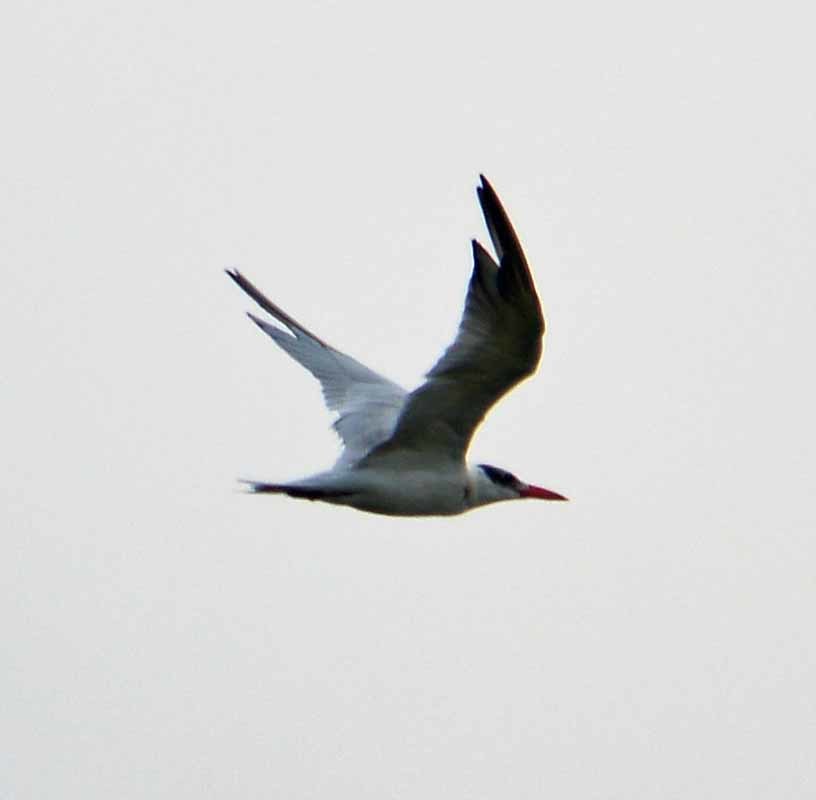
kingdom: Animalia
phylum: Chordata
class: Aves
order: Charadriiformes
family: Laridae
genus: Thalasseus
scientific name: Thalasseus maximus
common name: Royal tern
